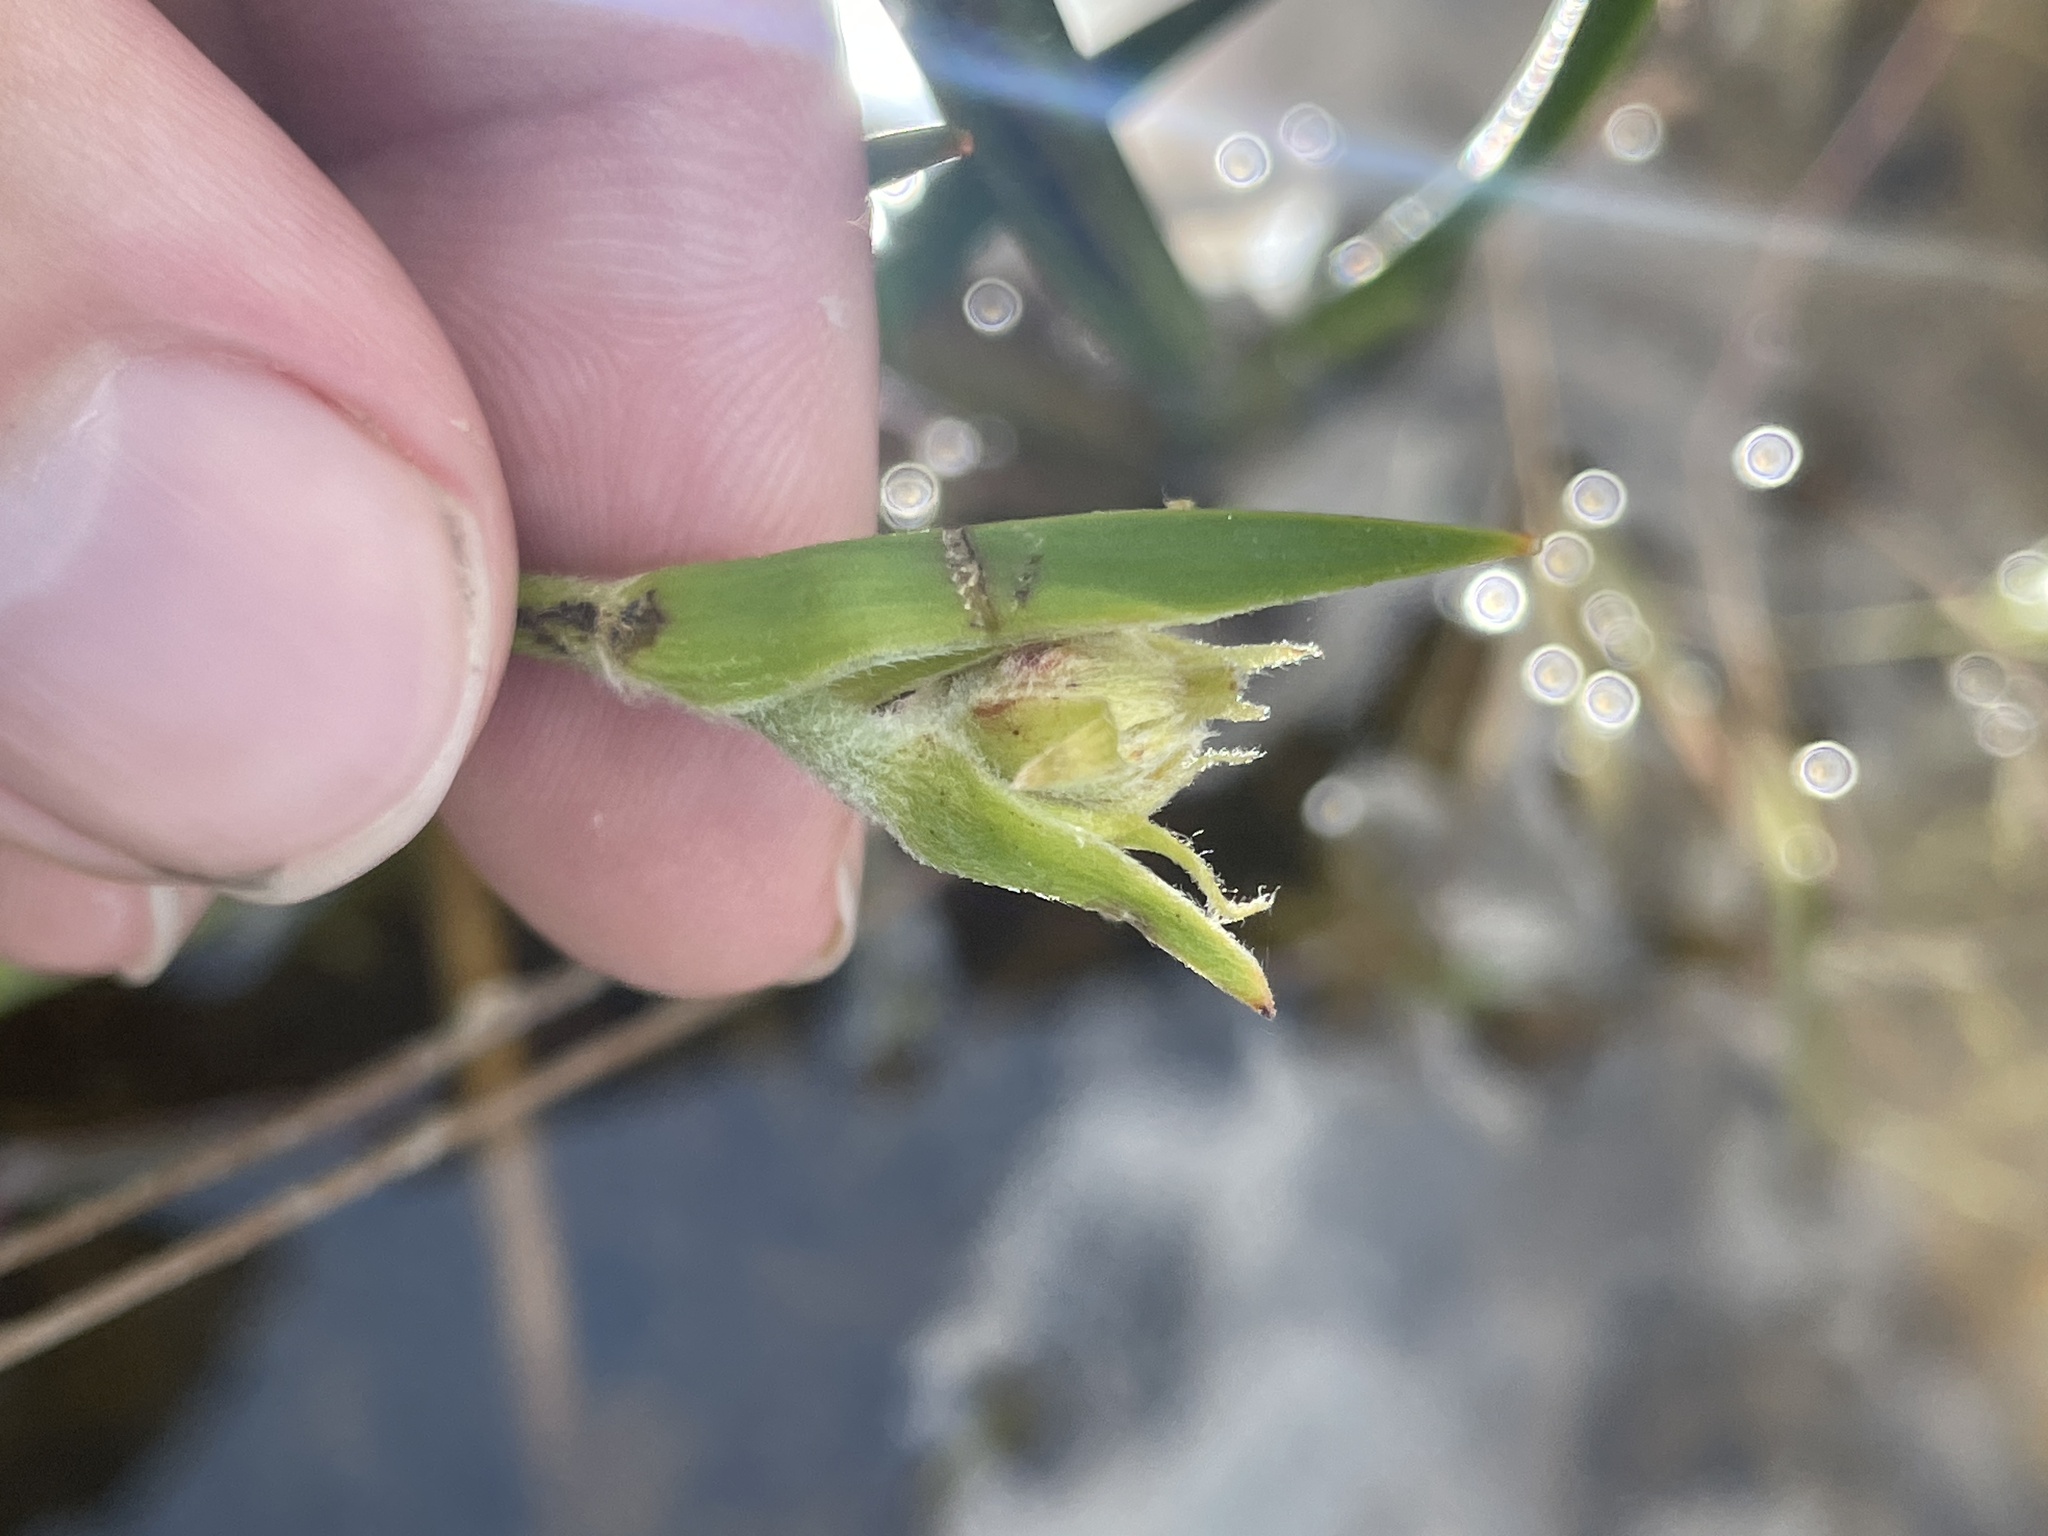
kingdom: Plantae
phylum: Tracheophyta
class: Liliopsida
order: Commelinales
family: Haemodoraceae
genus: Lachnanthes
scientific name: Lachnanthes caroliana
